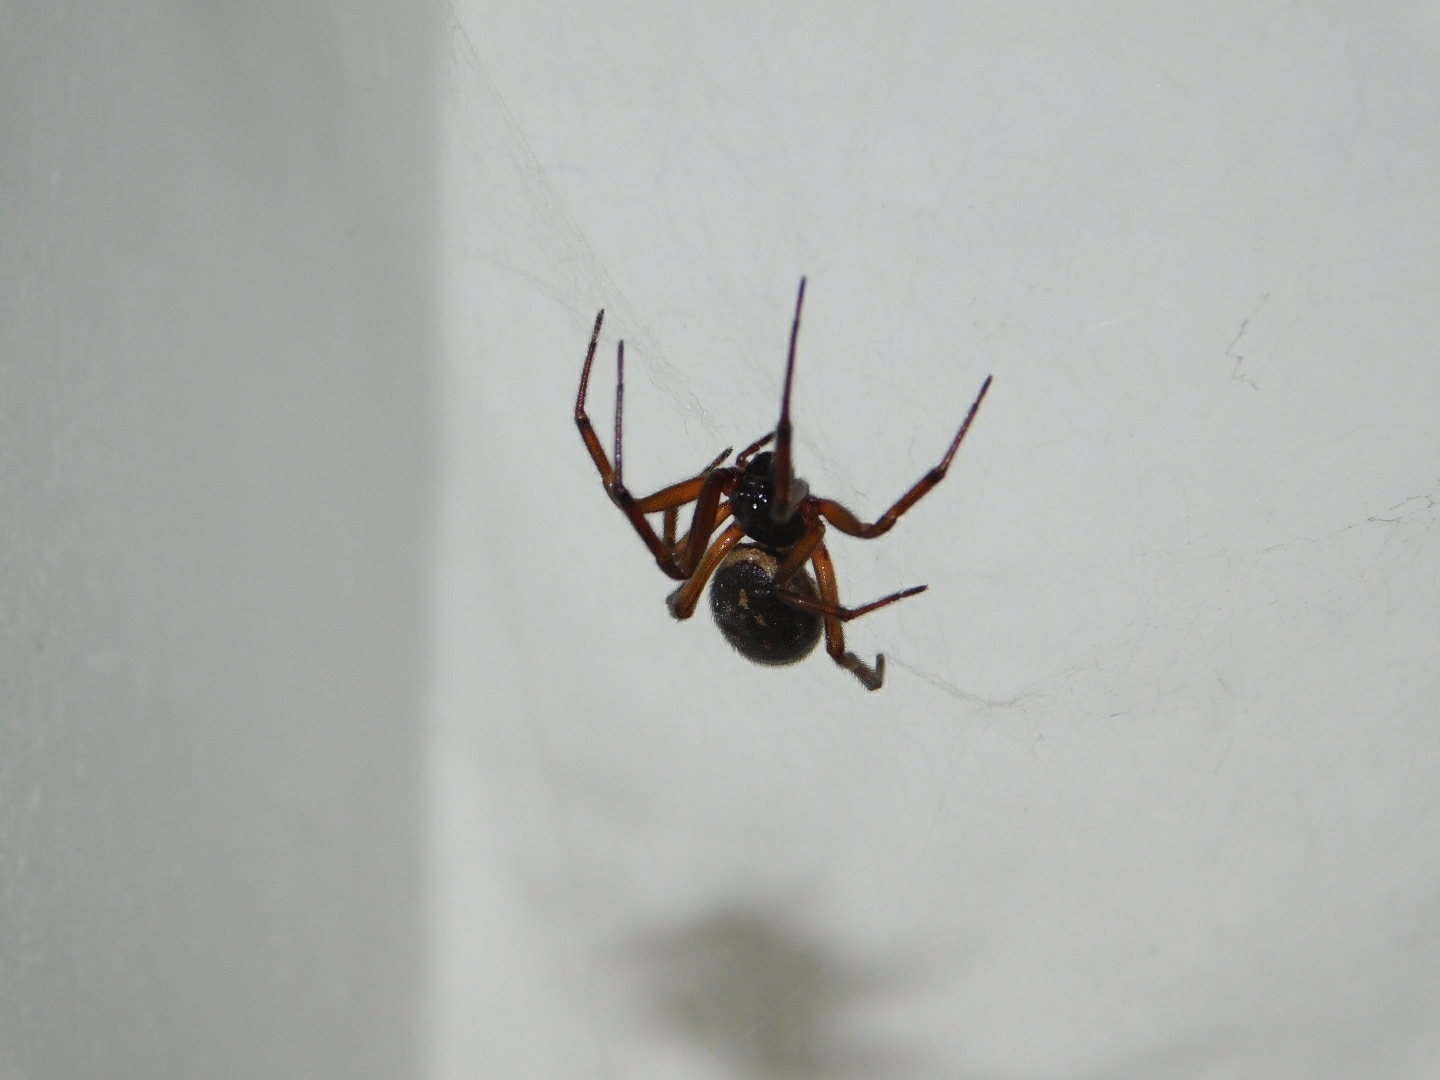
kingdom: Animalia
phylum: Arthropoda
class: Arachnida
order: Araneae
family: Theridiidae
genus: Steatoda
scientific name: Steatoda nobilis
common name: Cobweb weaver
